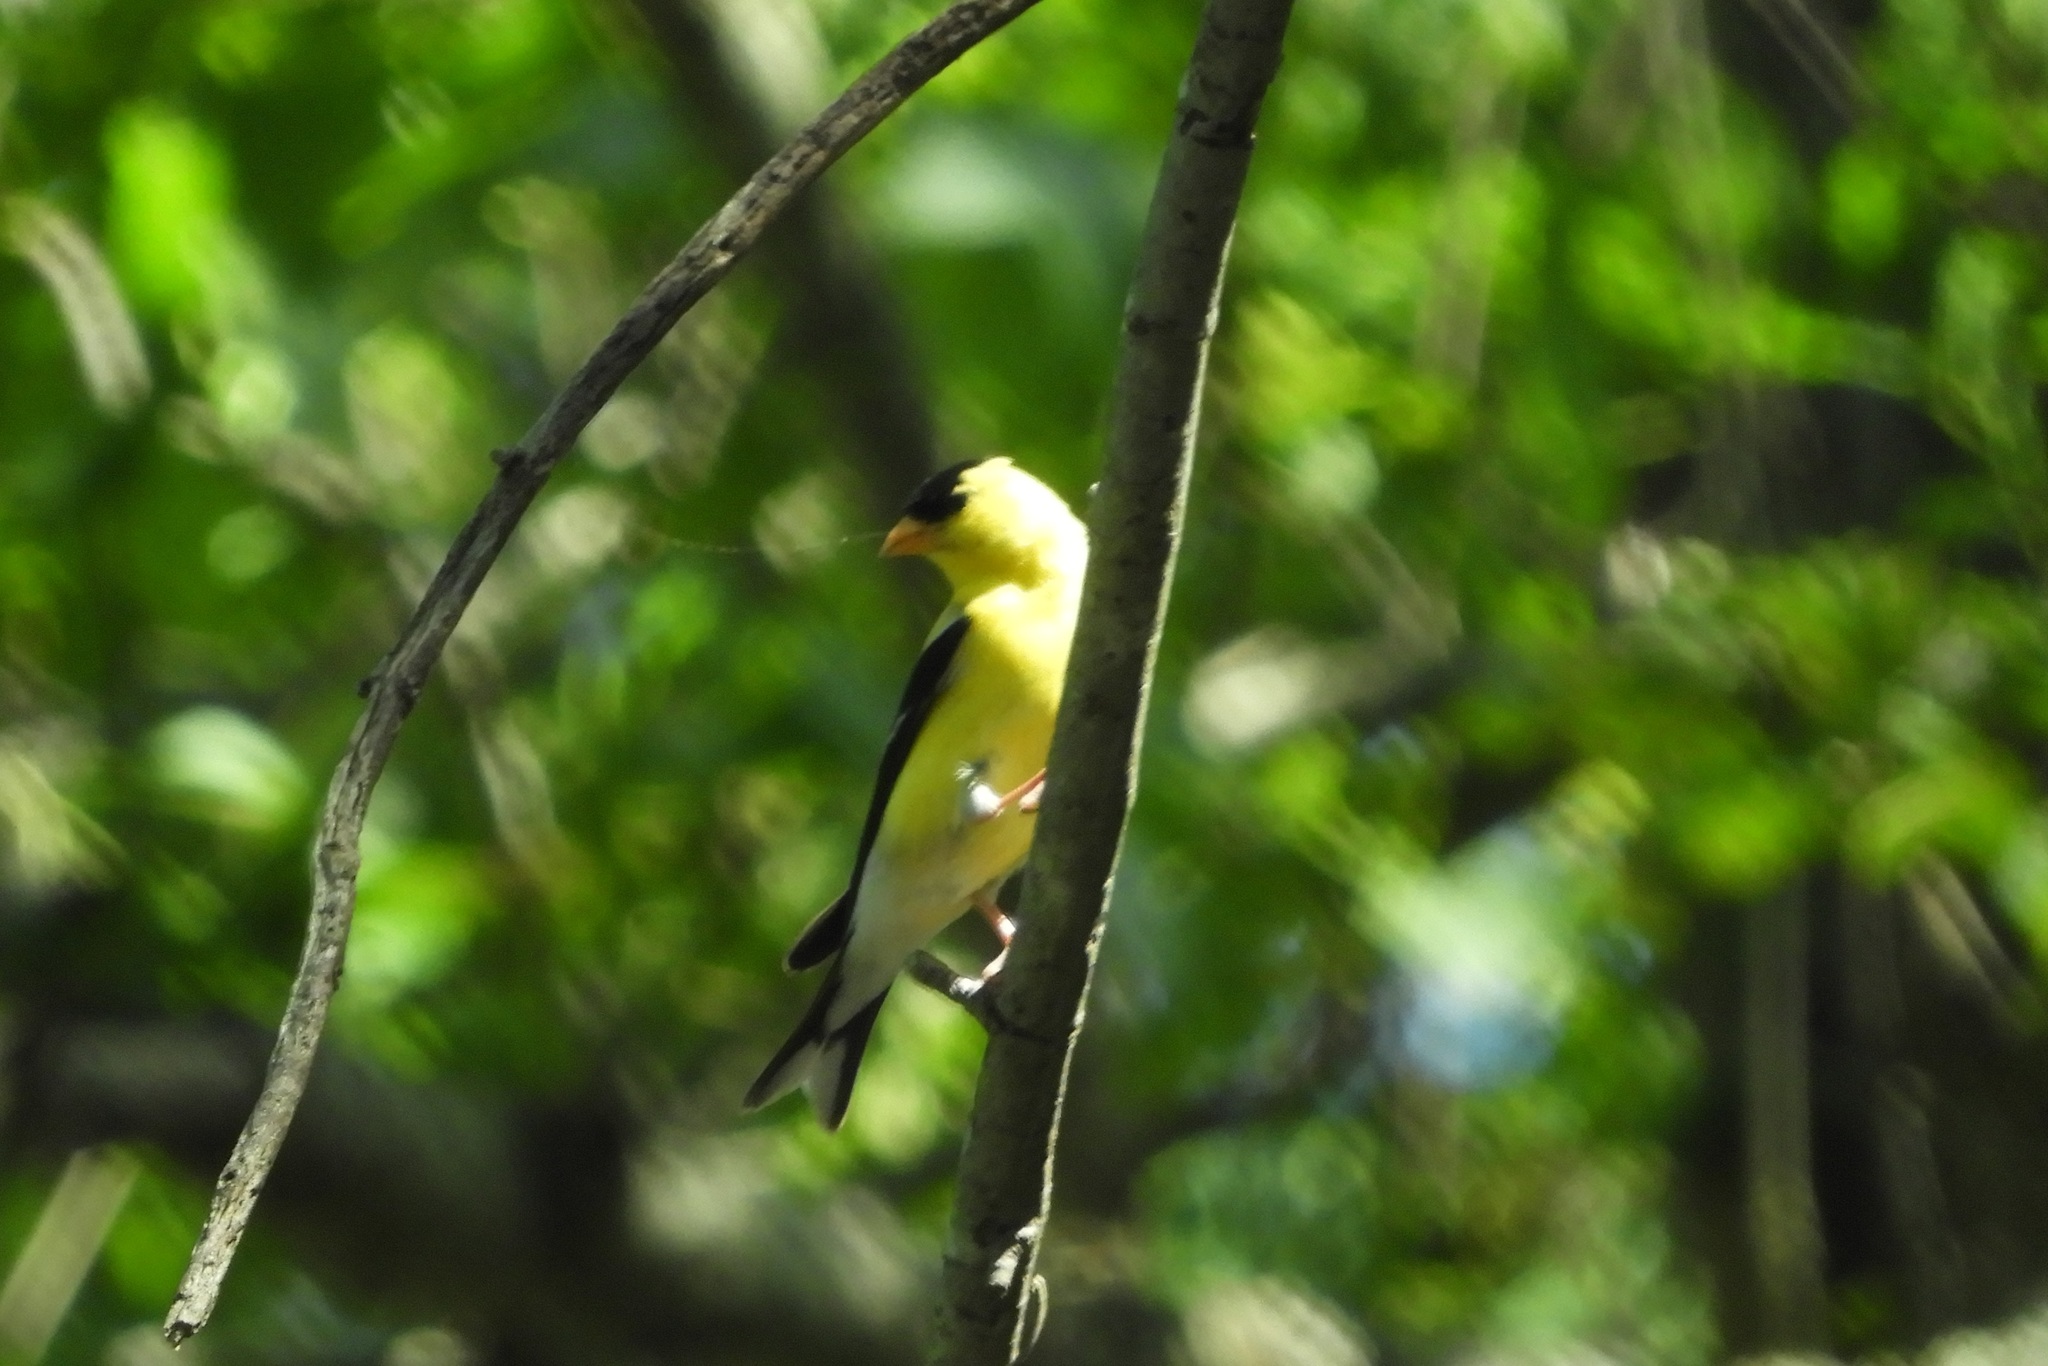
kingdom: Animalia
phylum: Chordata
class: Aves
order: Passeriformes
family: Fringillidae
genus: Spinus
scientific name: Spinus tristis
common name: American goldfinch
